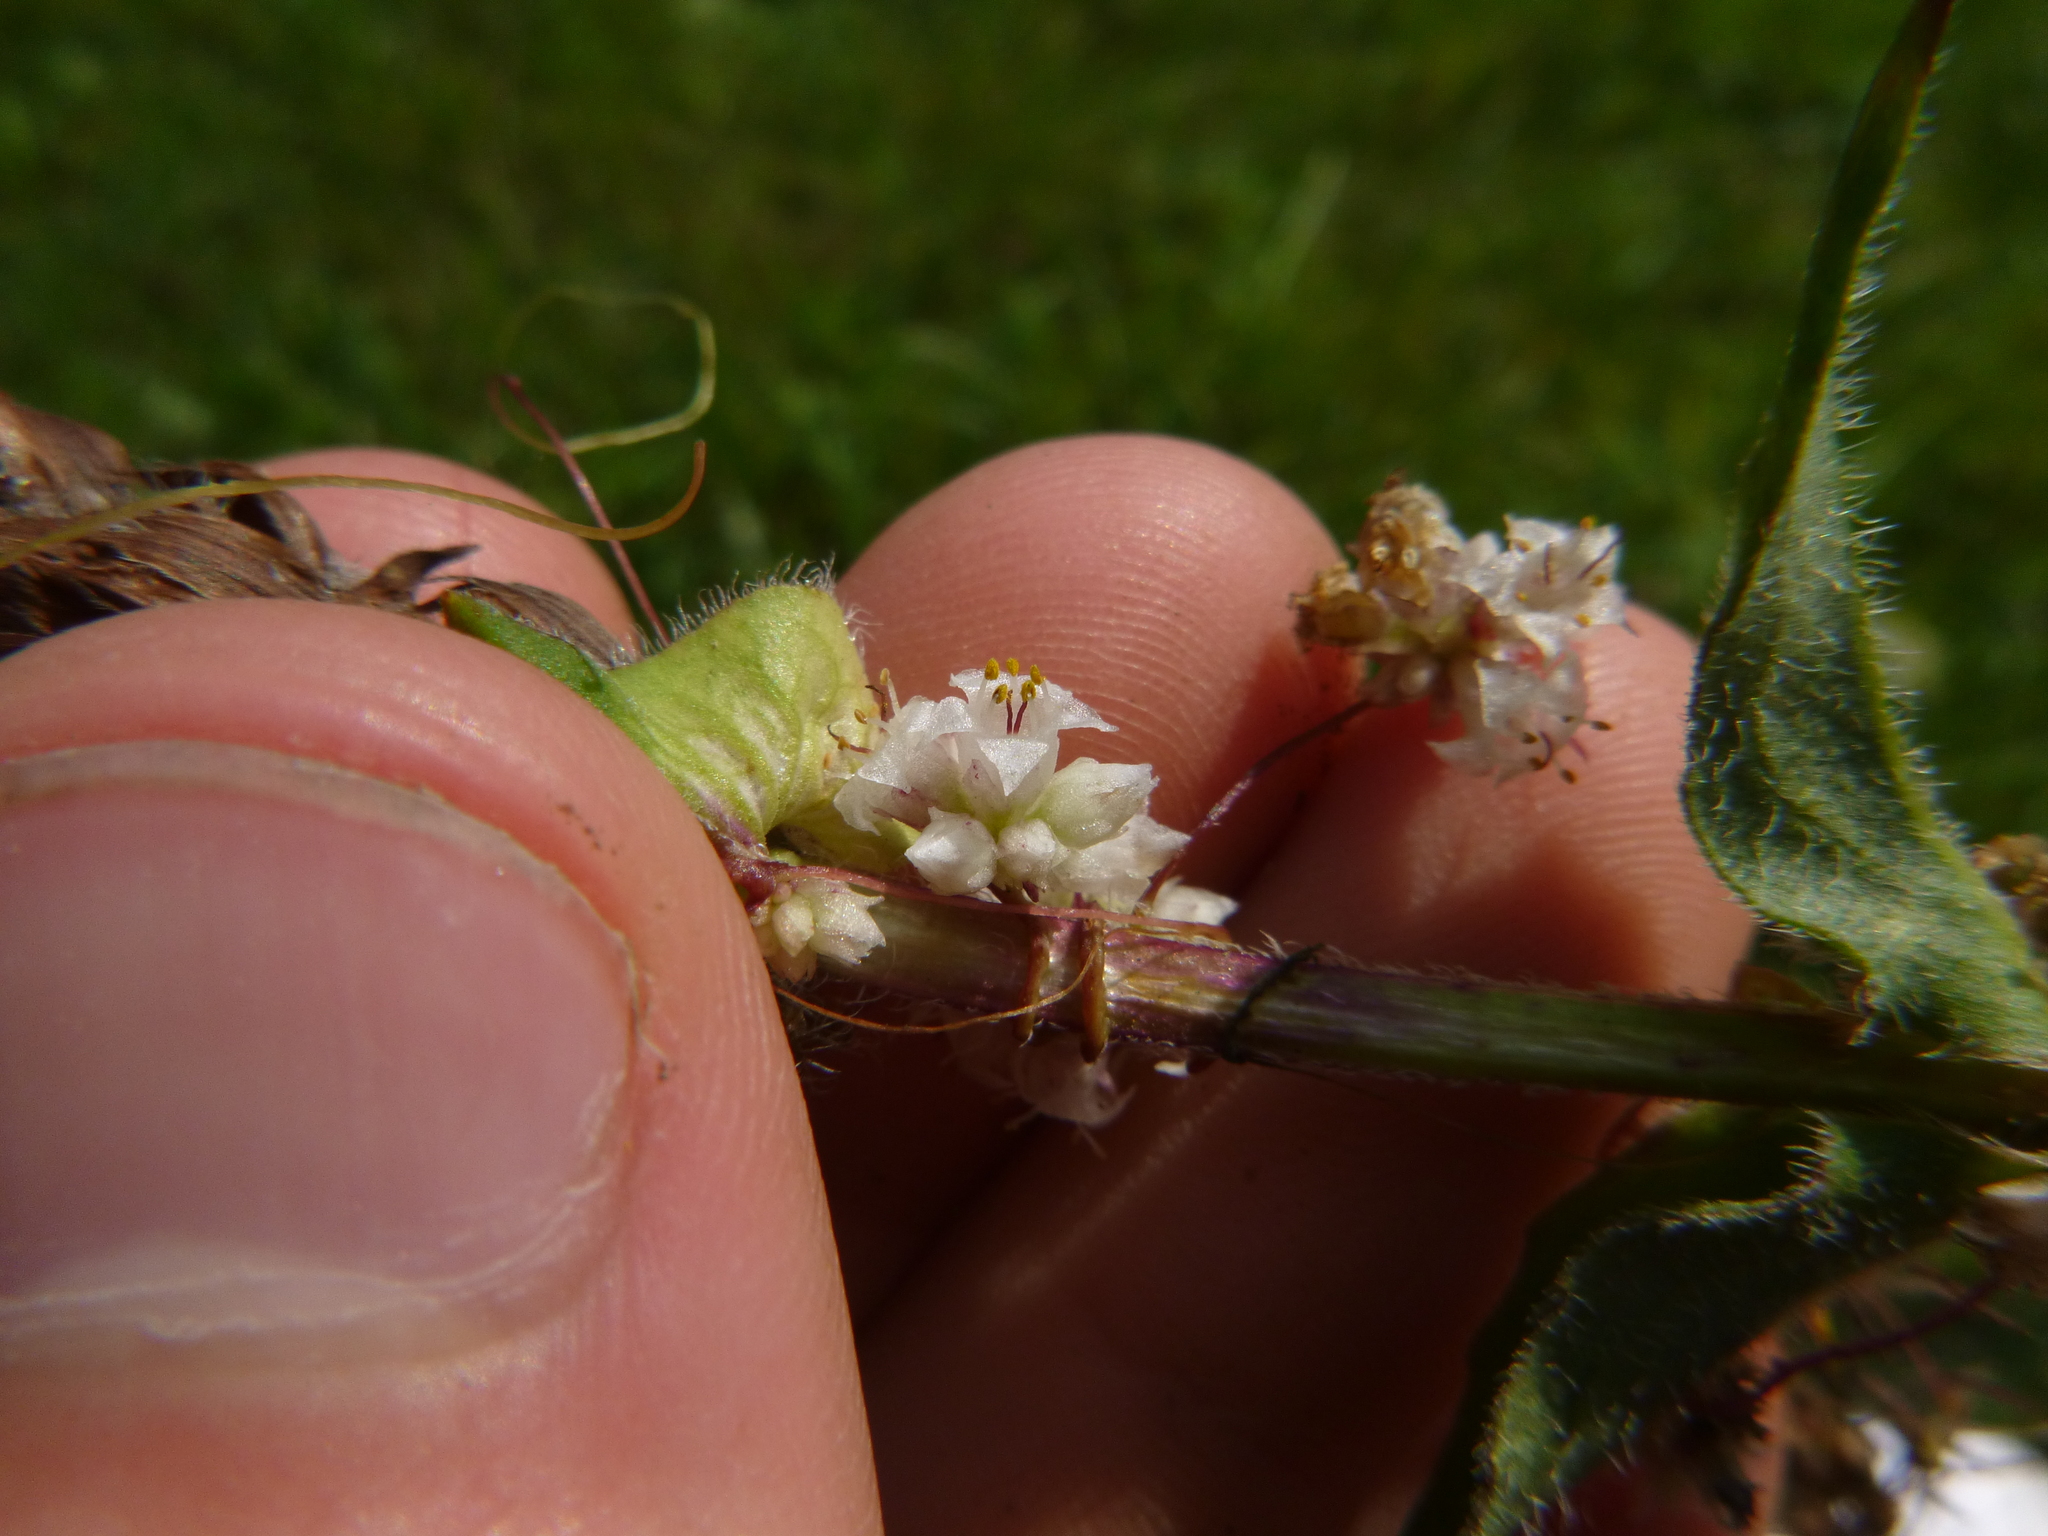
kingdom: Plantae
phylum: Tracheophyta
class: Magnoliopsida
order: Solanales
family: Convolvulaceae
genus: Cuscuta
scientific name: Cuscuta epithymum
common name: Clover dodder
